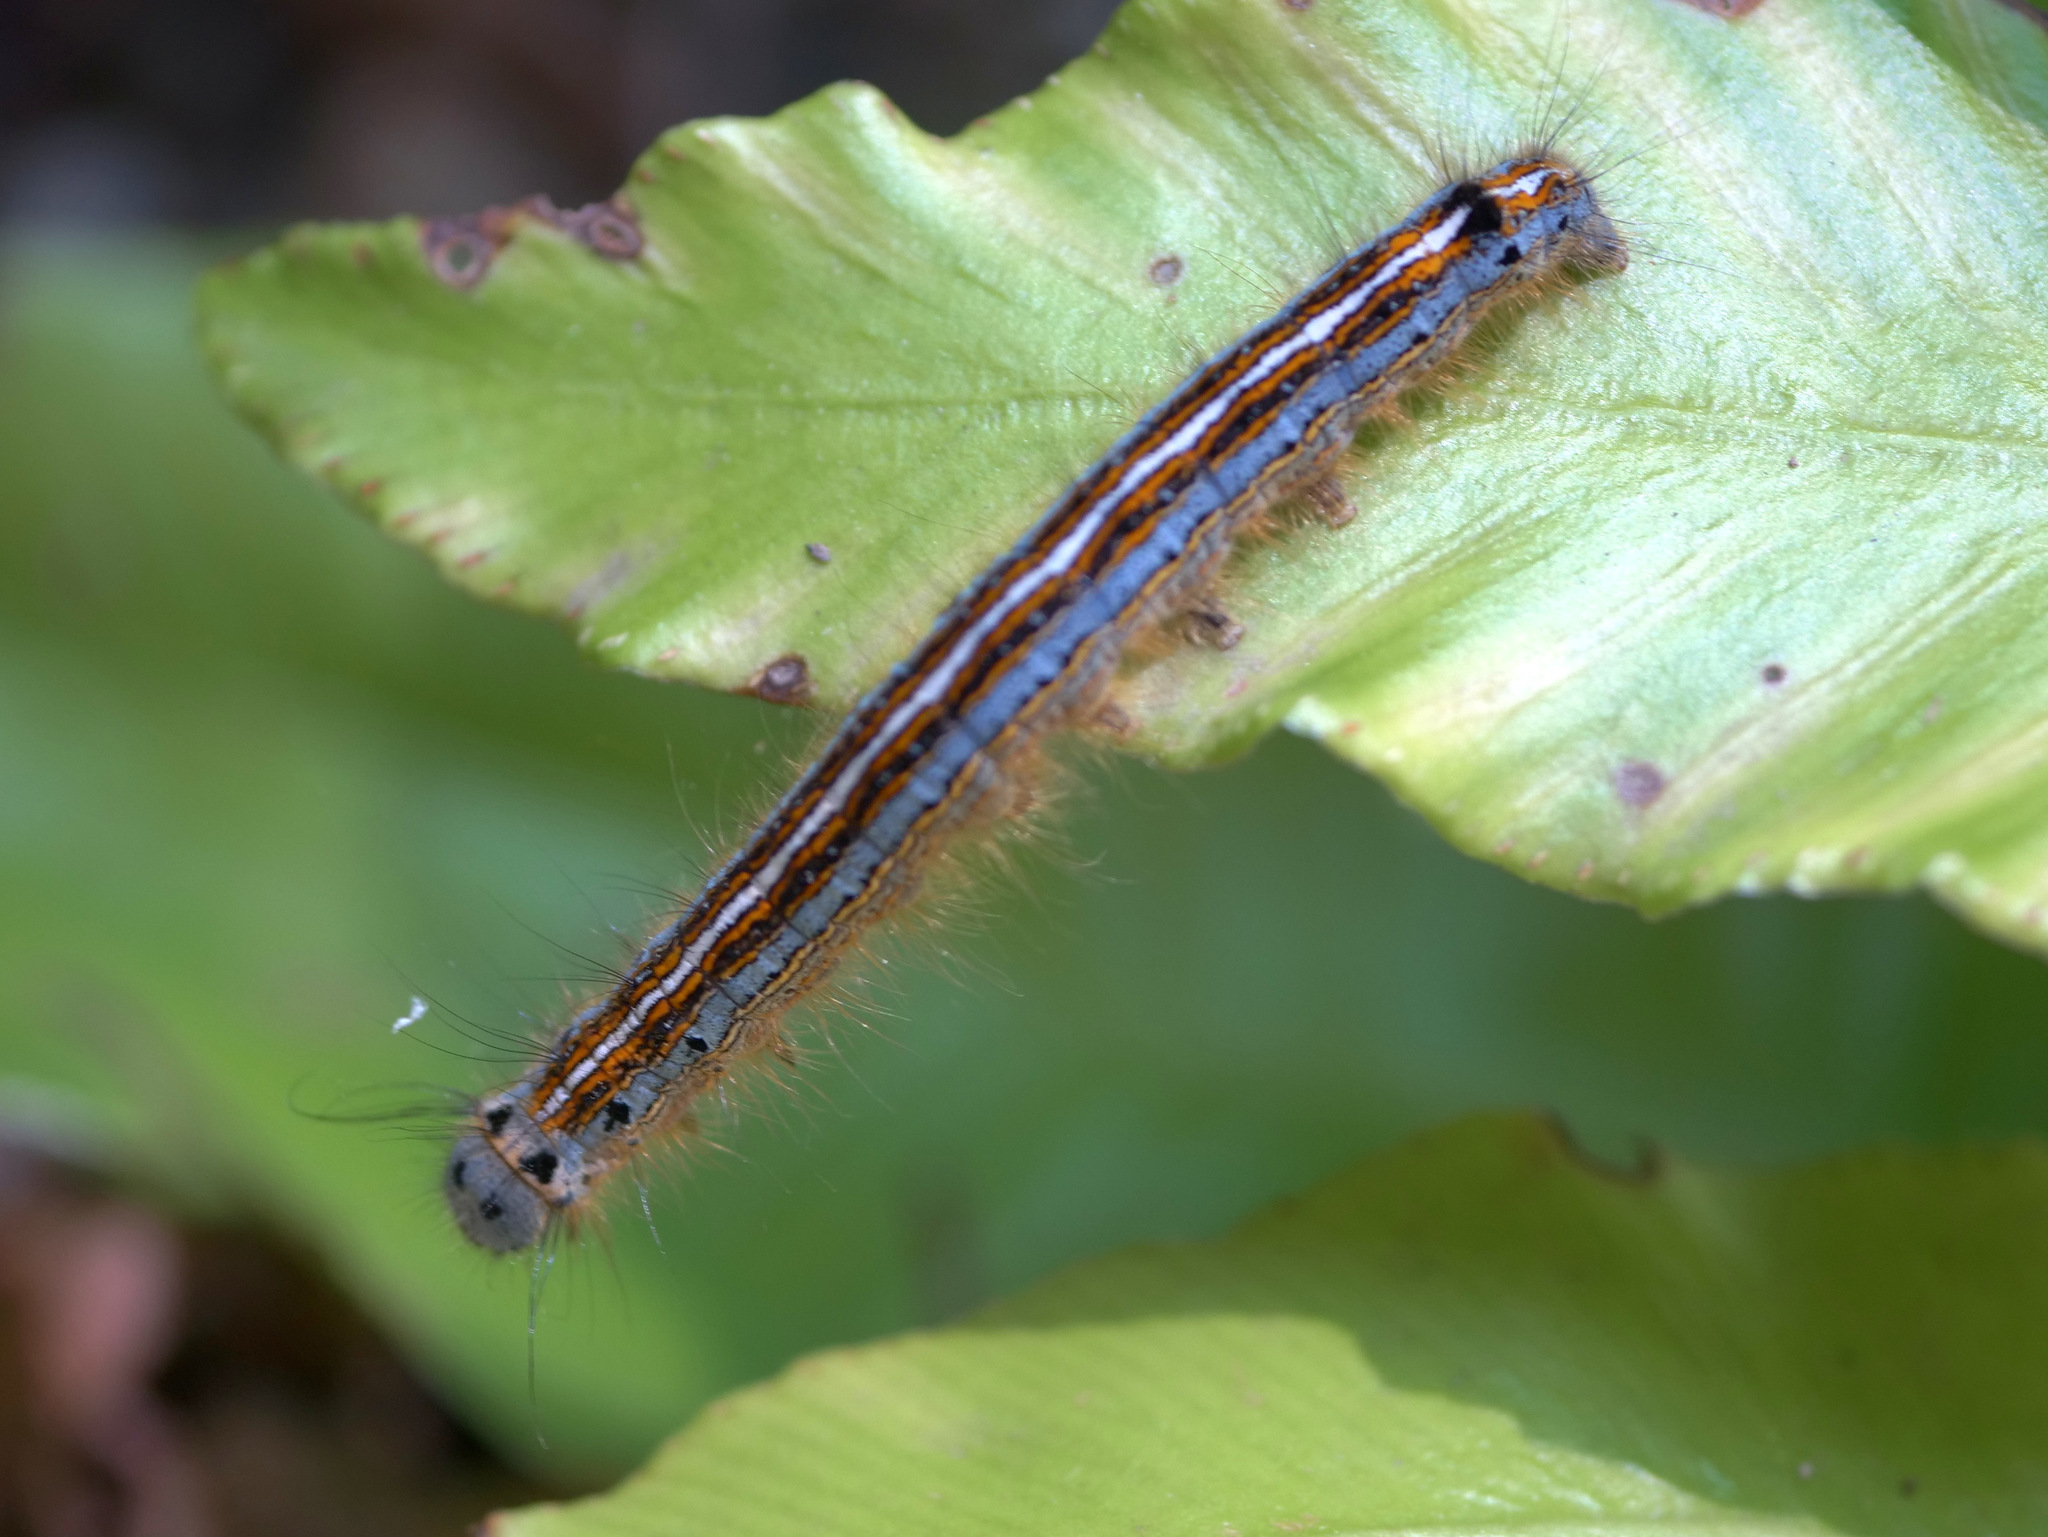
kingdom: Animalia
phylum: Arthropoda
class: Insecta
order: Lepidoptera
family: Lasiocampidae
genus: Malacosoma
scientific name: Malacosoma neustria
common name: The lackey
